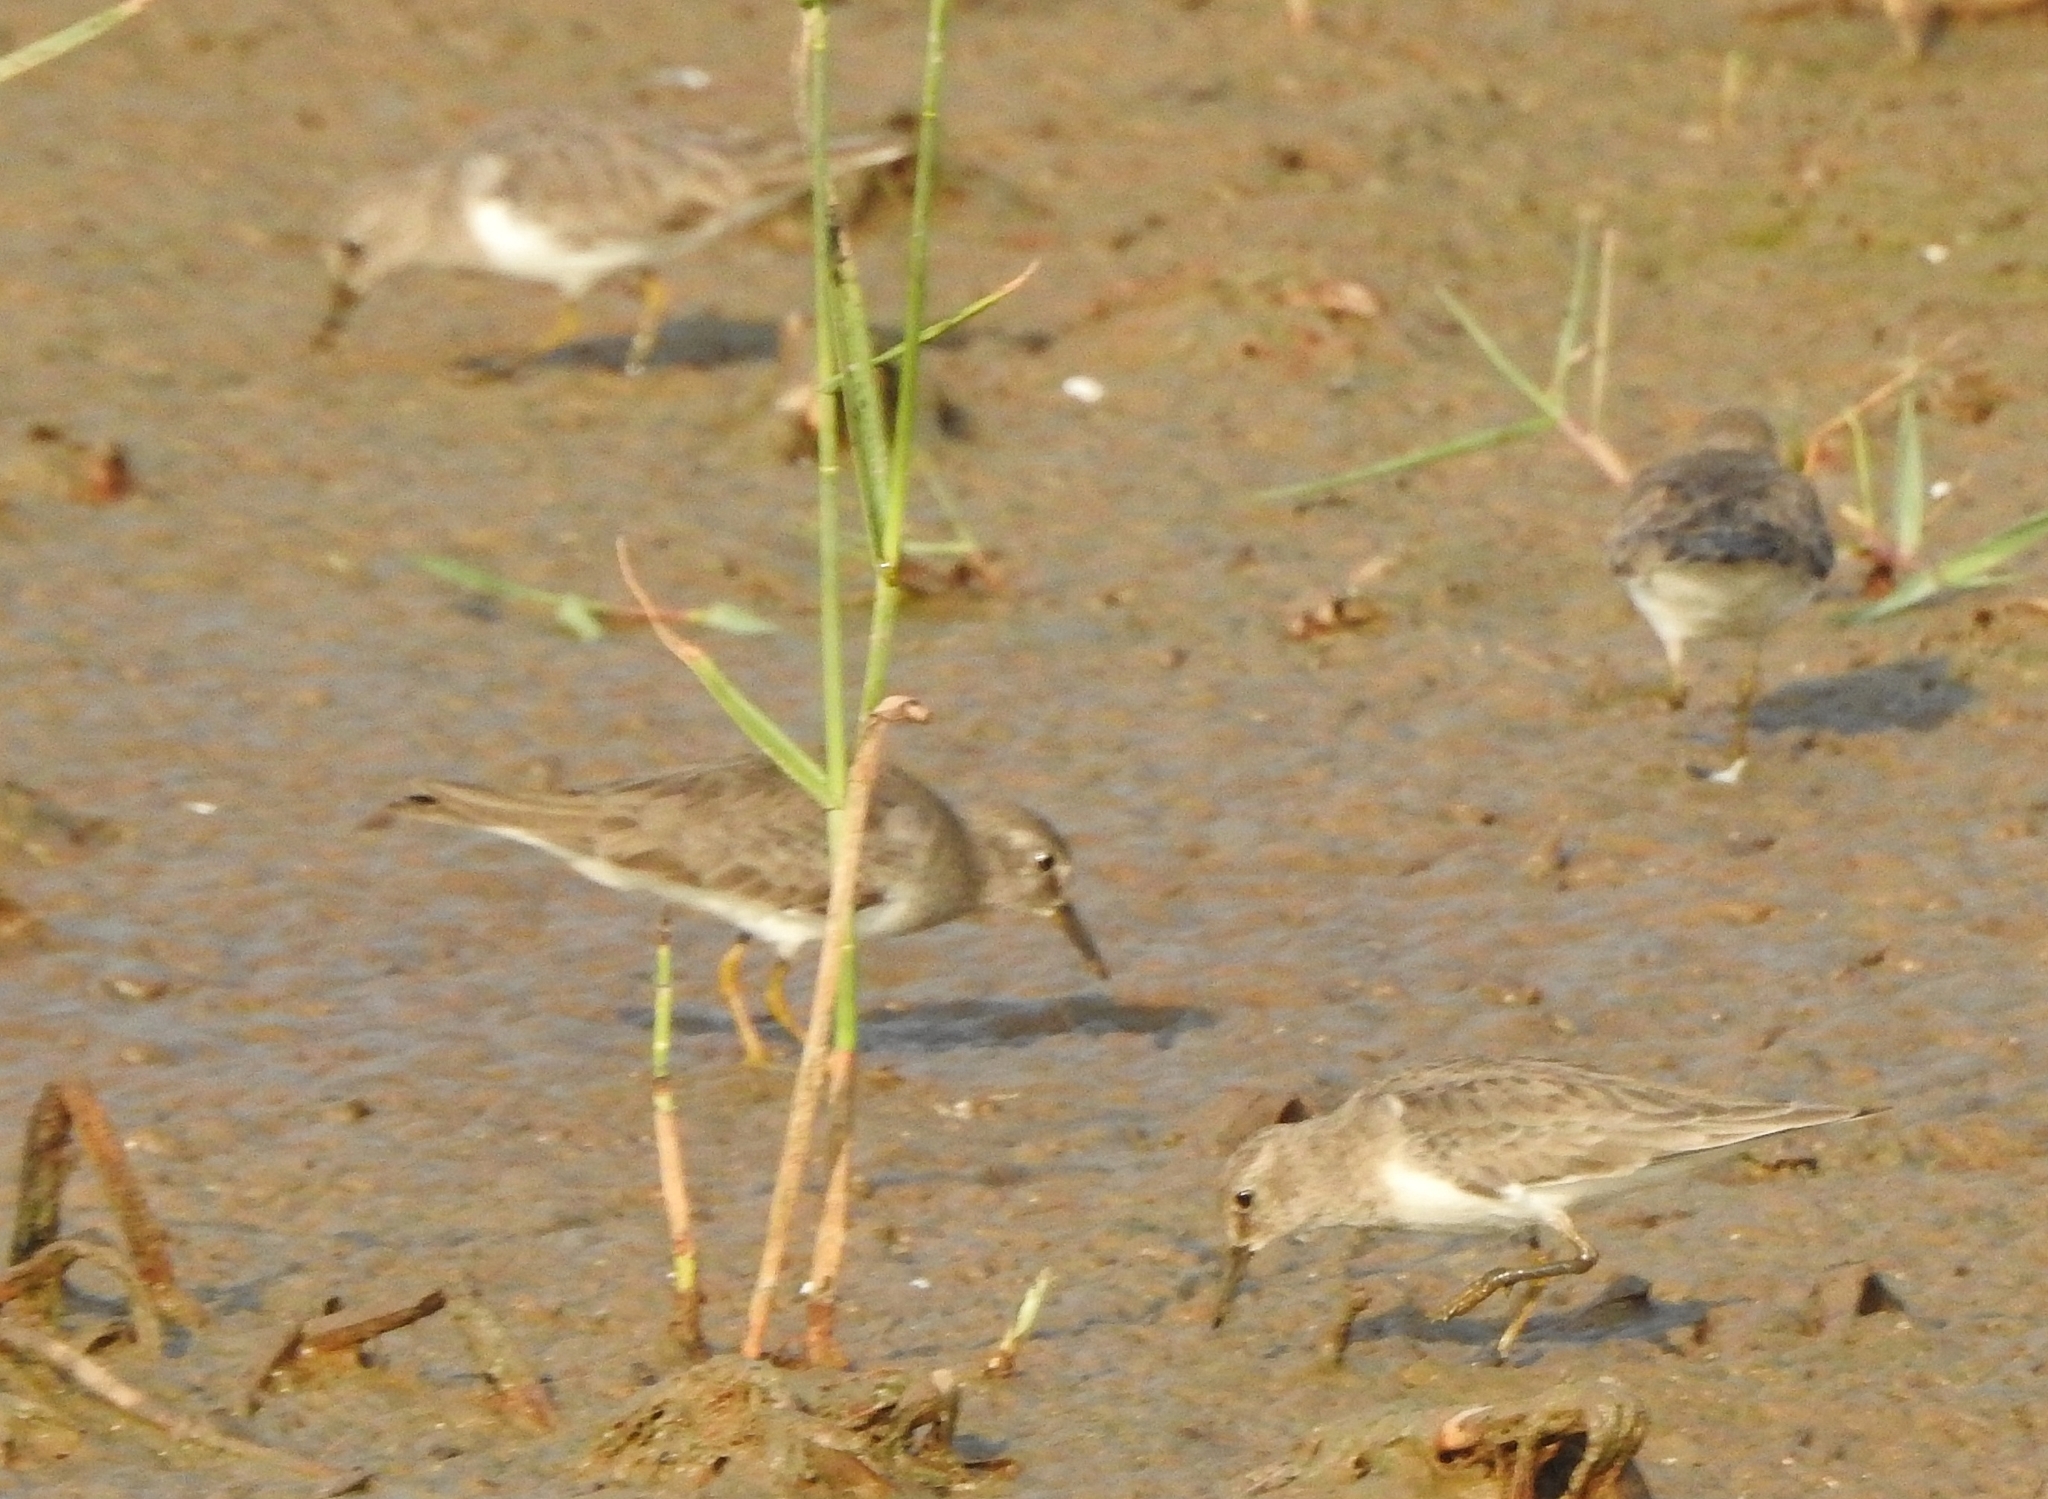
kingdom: Animalia
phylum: Chordata
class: Aves
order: Charadriiformes
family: Scolopacidae
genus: Calidris
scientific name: Calidris temminckii
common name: Temminck's stint
